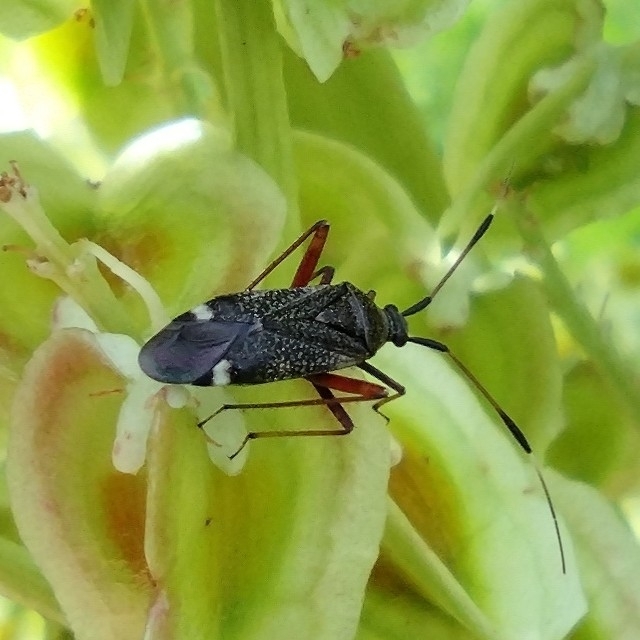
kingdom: Animalia
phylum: Arthropoda
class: Insecta
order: Hemiptera
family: Miridae
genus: Closterotomus
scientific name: Closterotomus biclavatus
